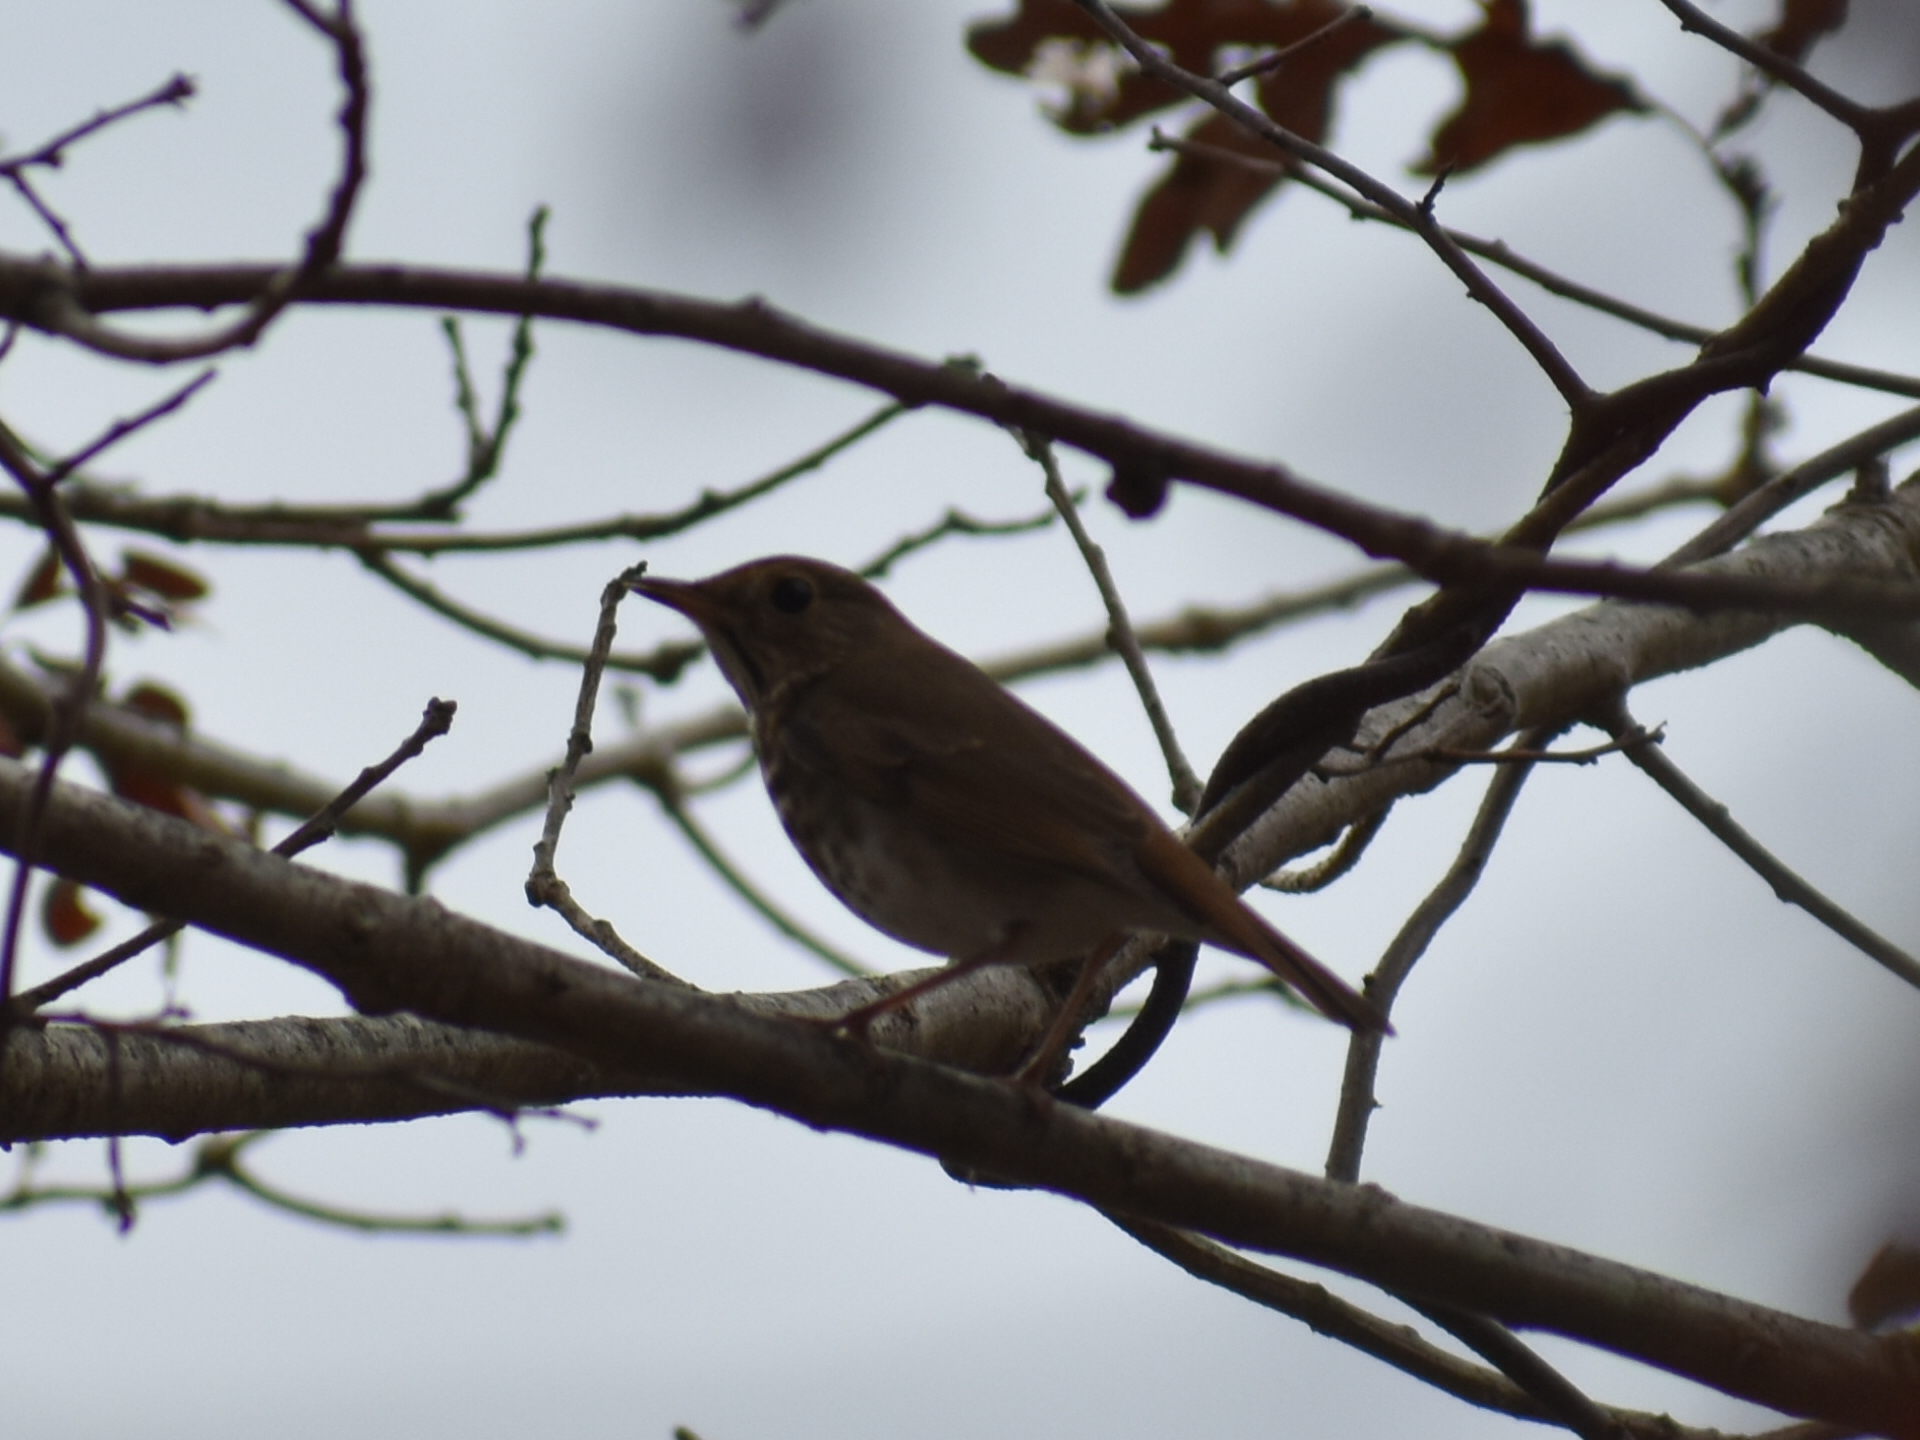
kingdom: Animalia
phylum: Chordata
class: Aves
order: Passeriformes
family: Turdidae
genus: Catharus
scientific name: Catharus guttatus
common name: Hermit thrush
